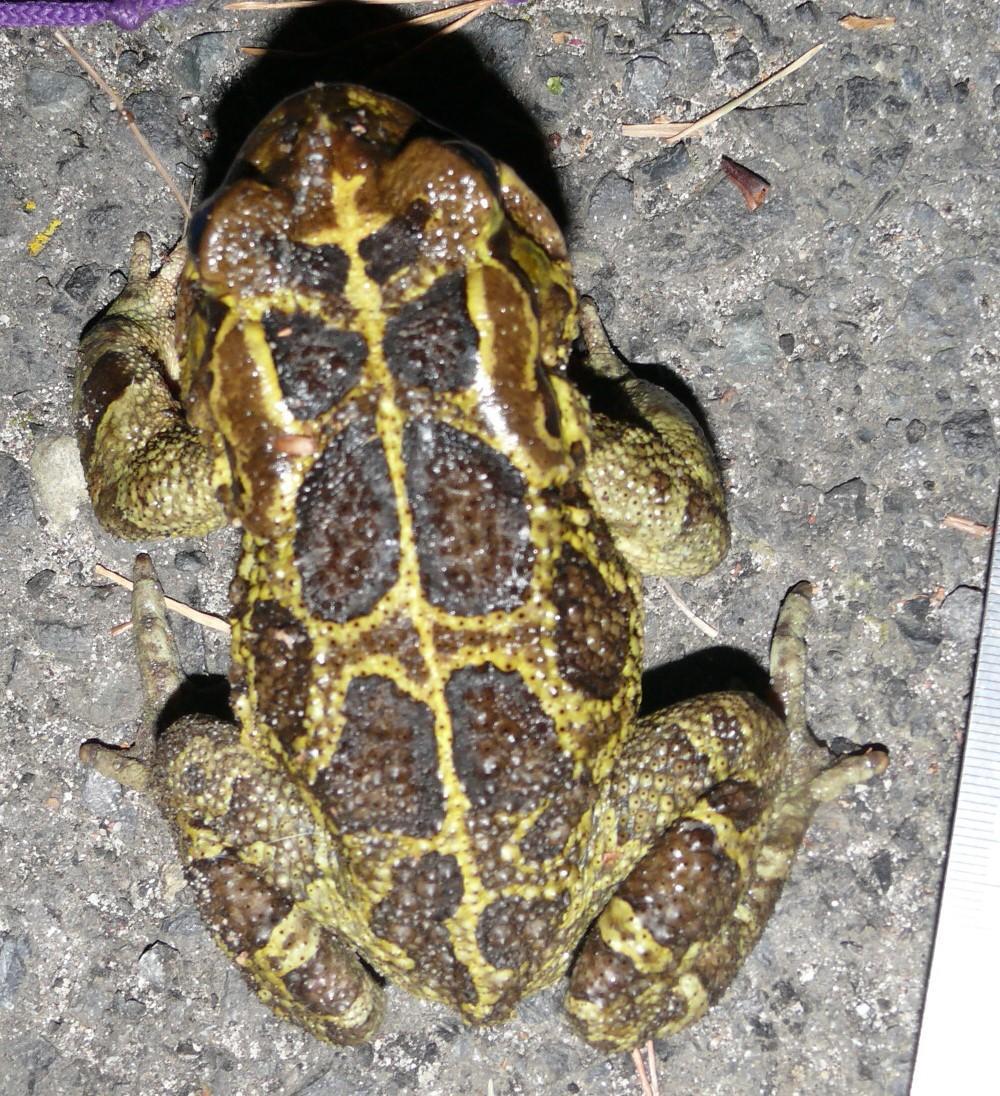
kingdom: Animalia
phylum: Chordata
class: Amphibia
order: Anura
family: Bufonidae
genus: Sclerophrys
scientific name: Sclerophrys pantherina
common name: Panther toad
